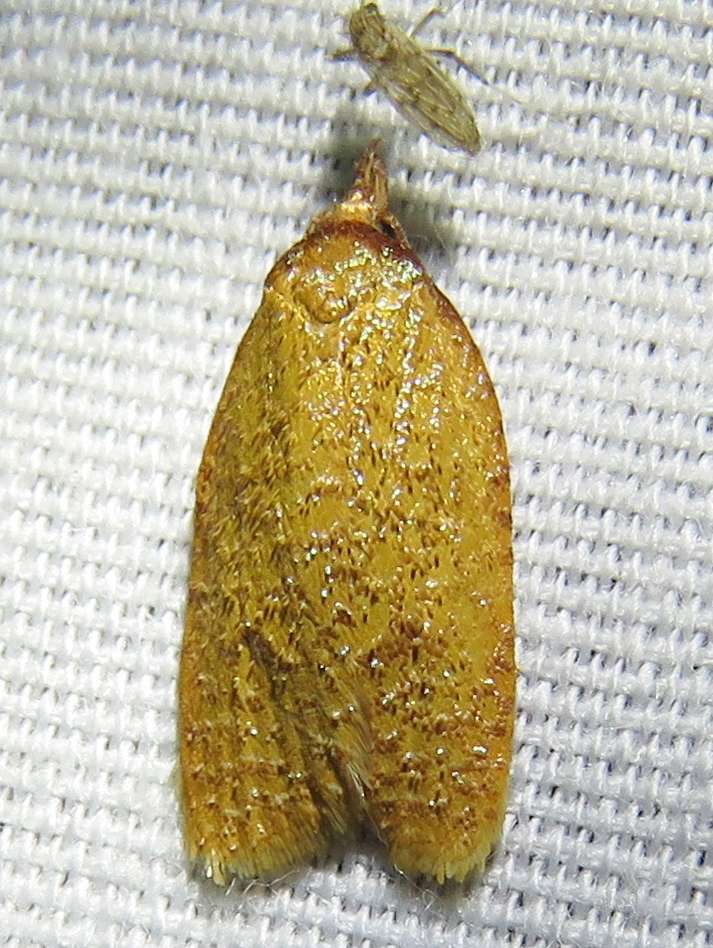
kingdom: Animalia
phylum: Arthropoda
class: Insecta
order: Lepidoptera
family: Tortricidae
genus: Sparganothis
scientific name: Sparganothis distincta
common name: Distinct sparganothis moth
